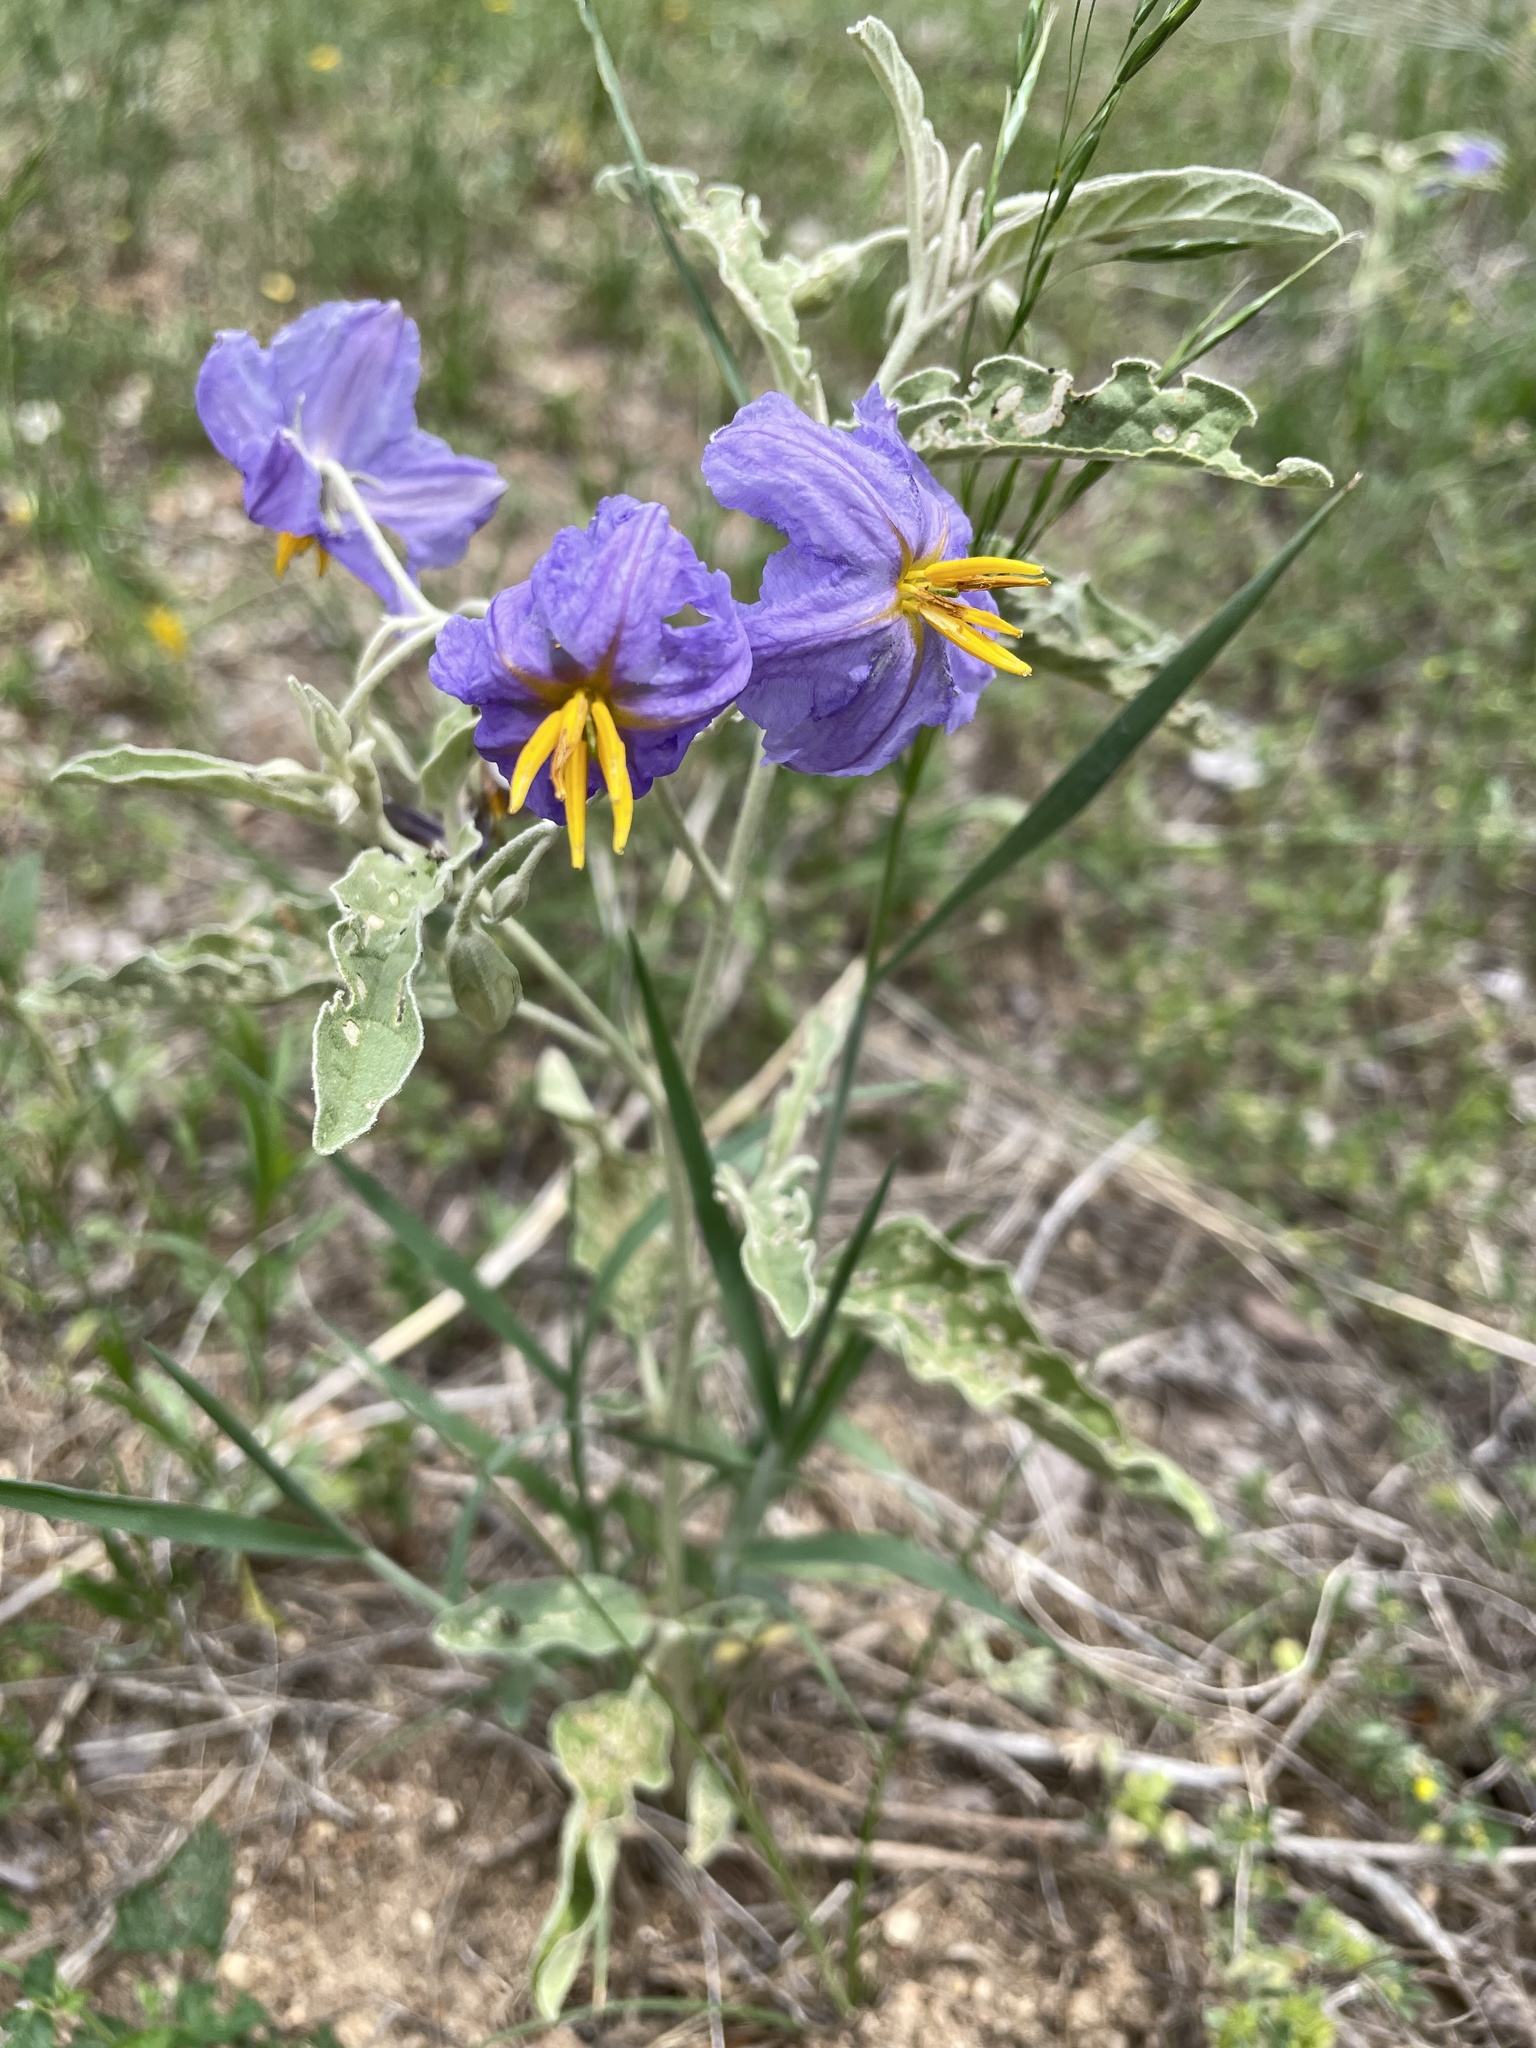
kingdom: Plantae
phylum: Tracheophyta
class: Magnoliopsida
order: Solanales
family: Solanaceae
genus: Solanum
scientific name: Solanum elaeagnifolium
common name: Silverleaf nightshade
